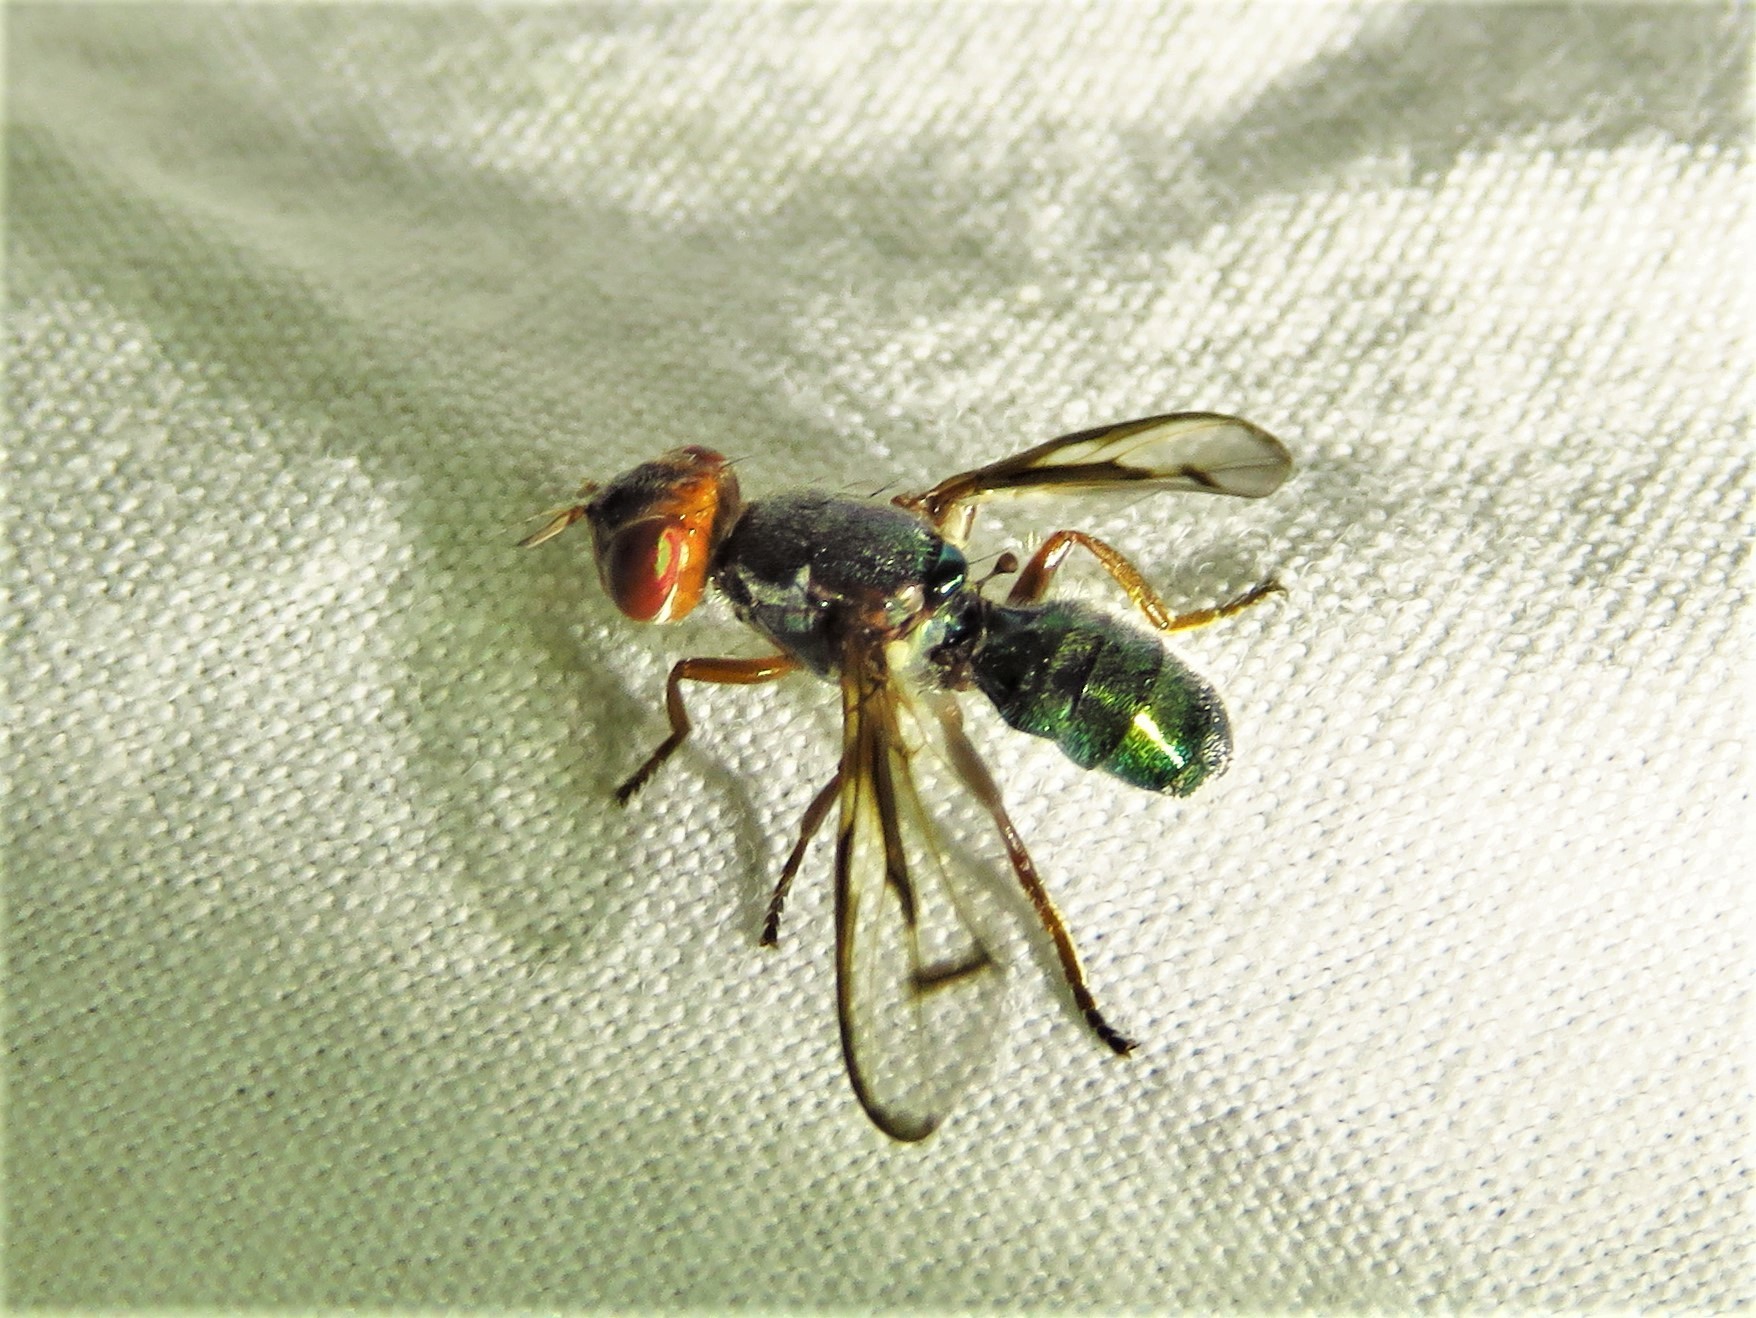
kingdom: Animalia
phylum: Arthropoda
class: Insecta
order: Diptera
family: Platystomatidae
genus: Senopterina
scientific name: Senopterina caerulescens
